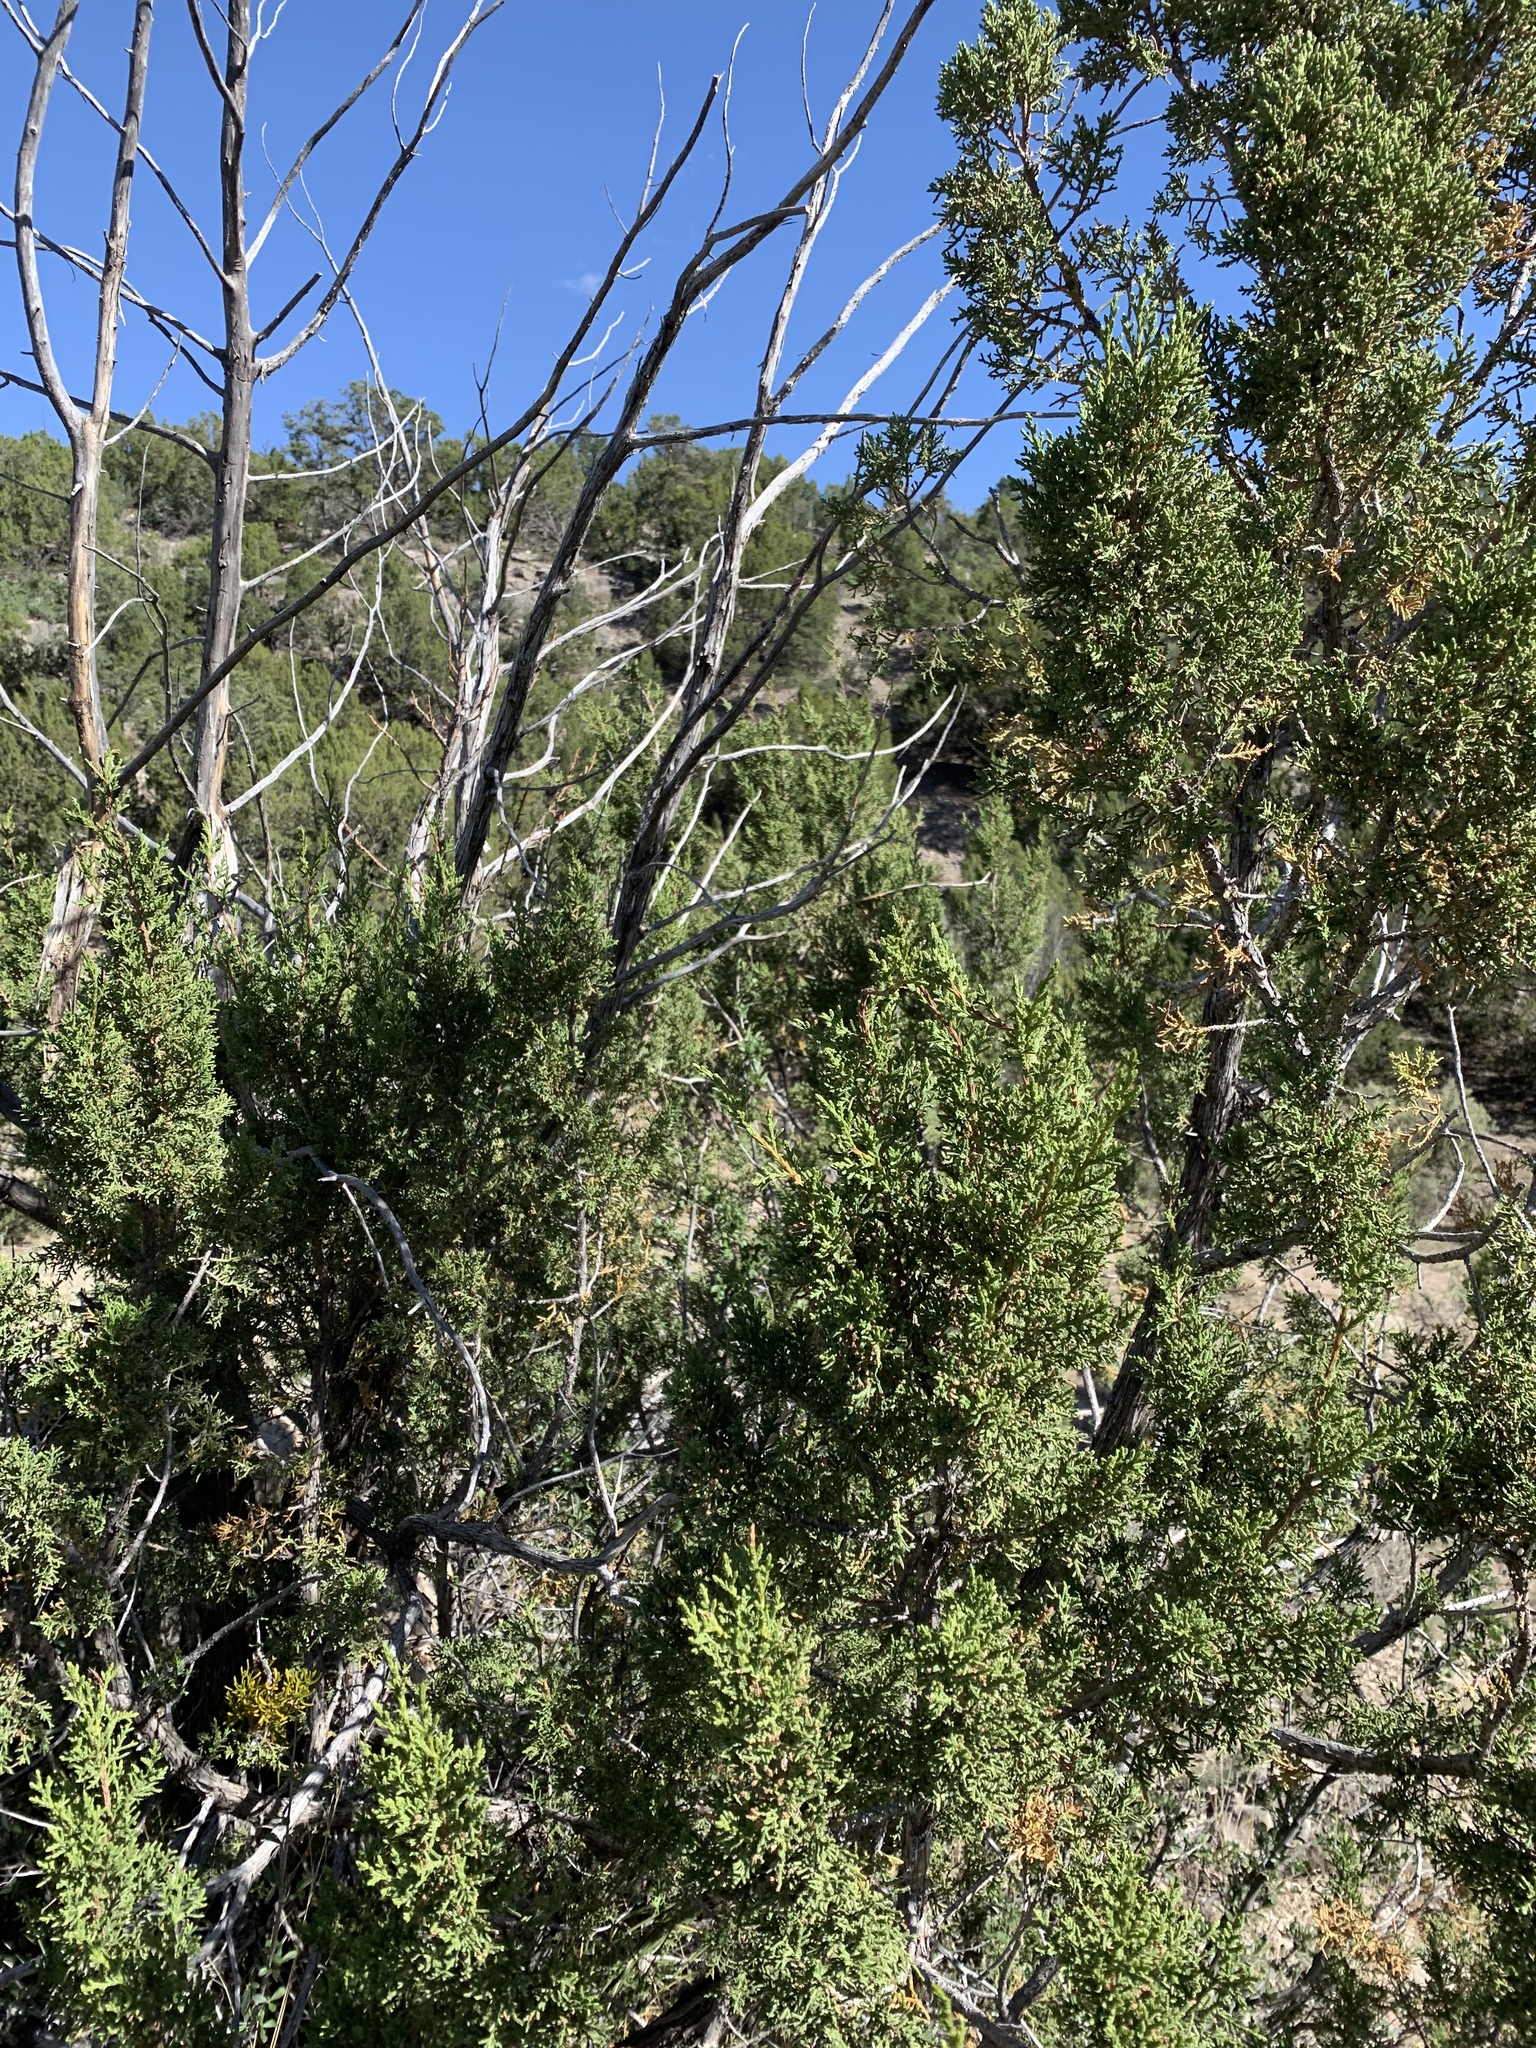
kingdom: Plantae
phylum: Tracheophyta
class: Pinopsida
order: Pinales
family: Cupressaceae
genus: Juniperus
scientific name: Juniperus monosperma
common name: One-seed juniper
